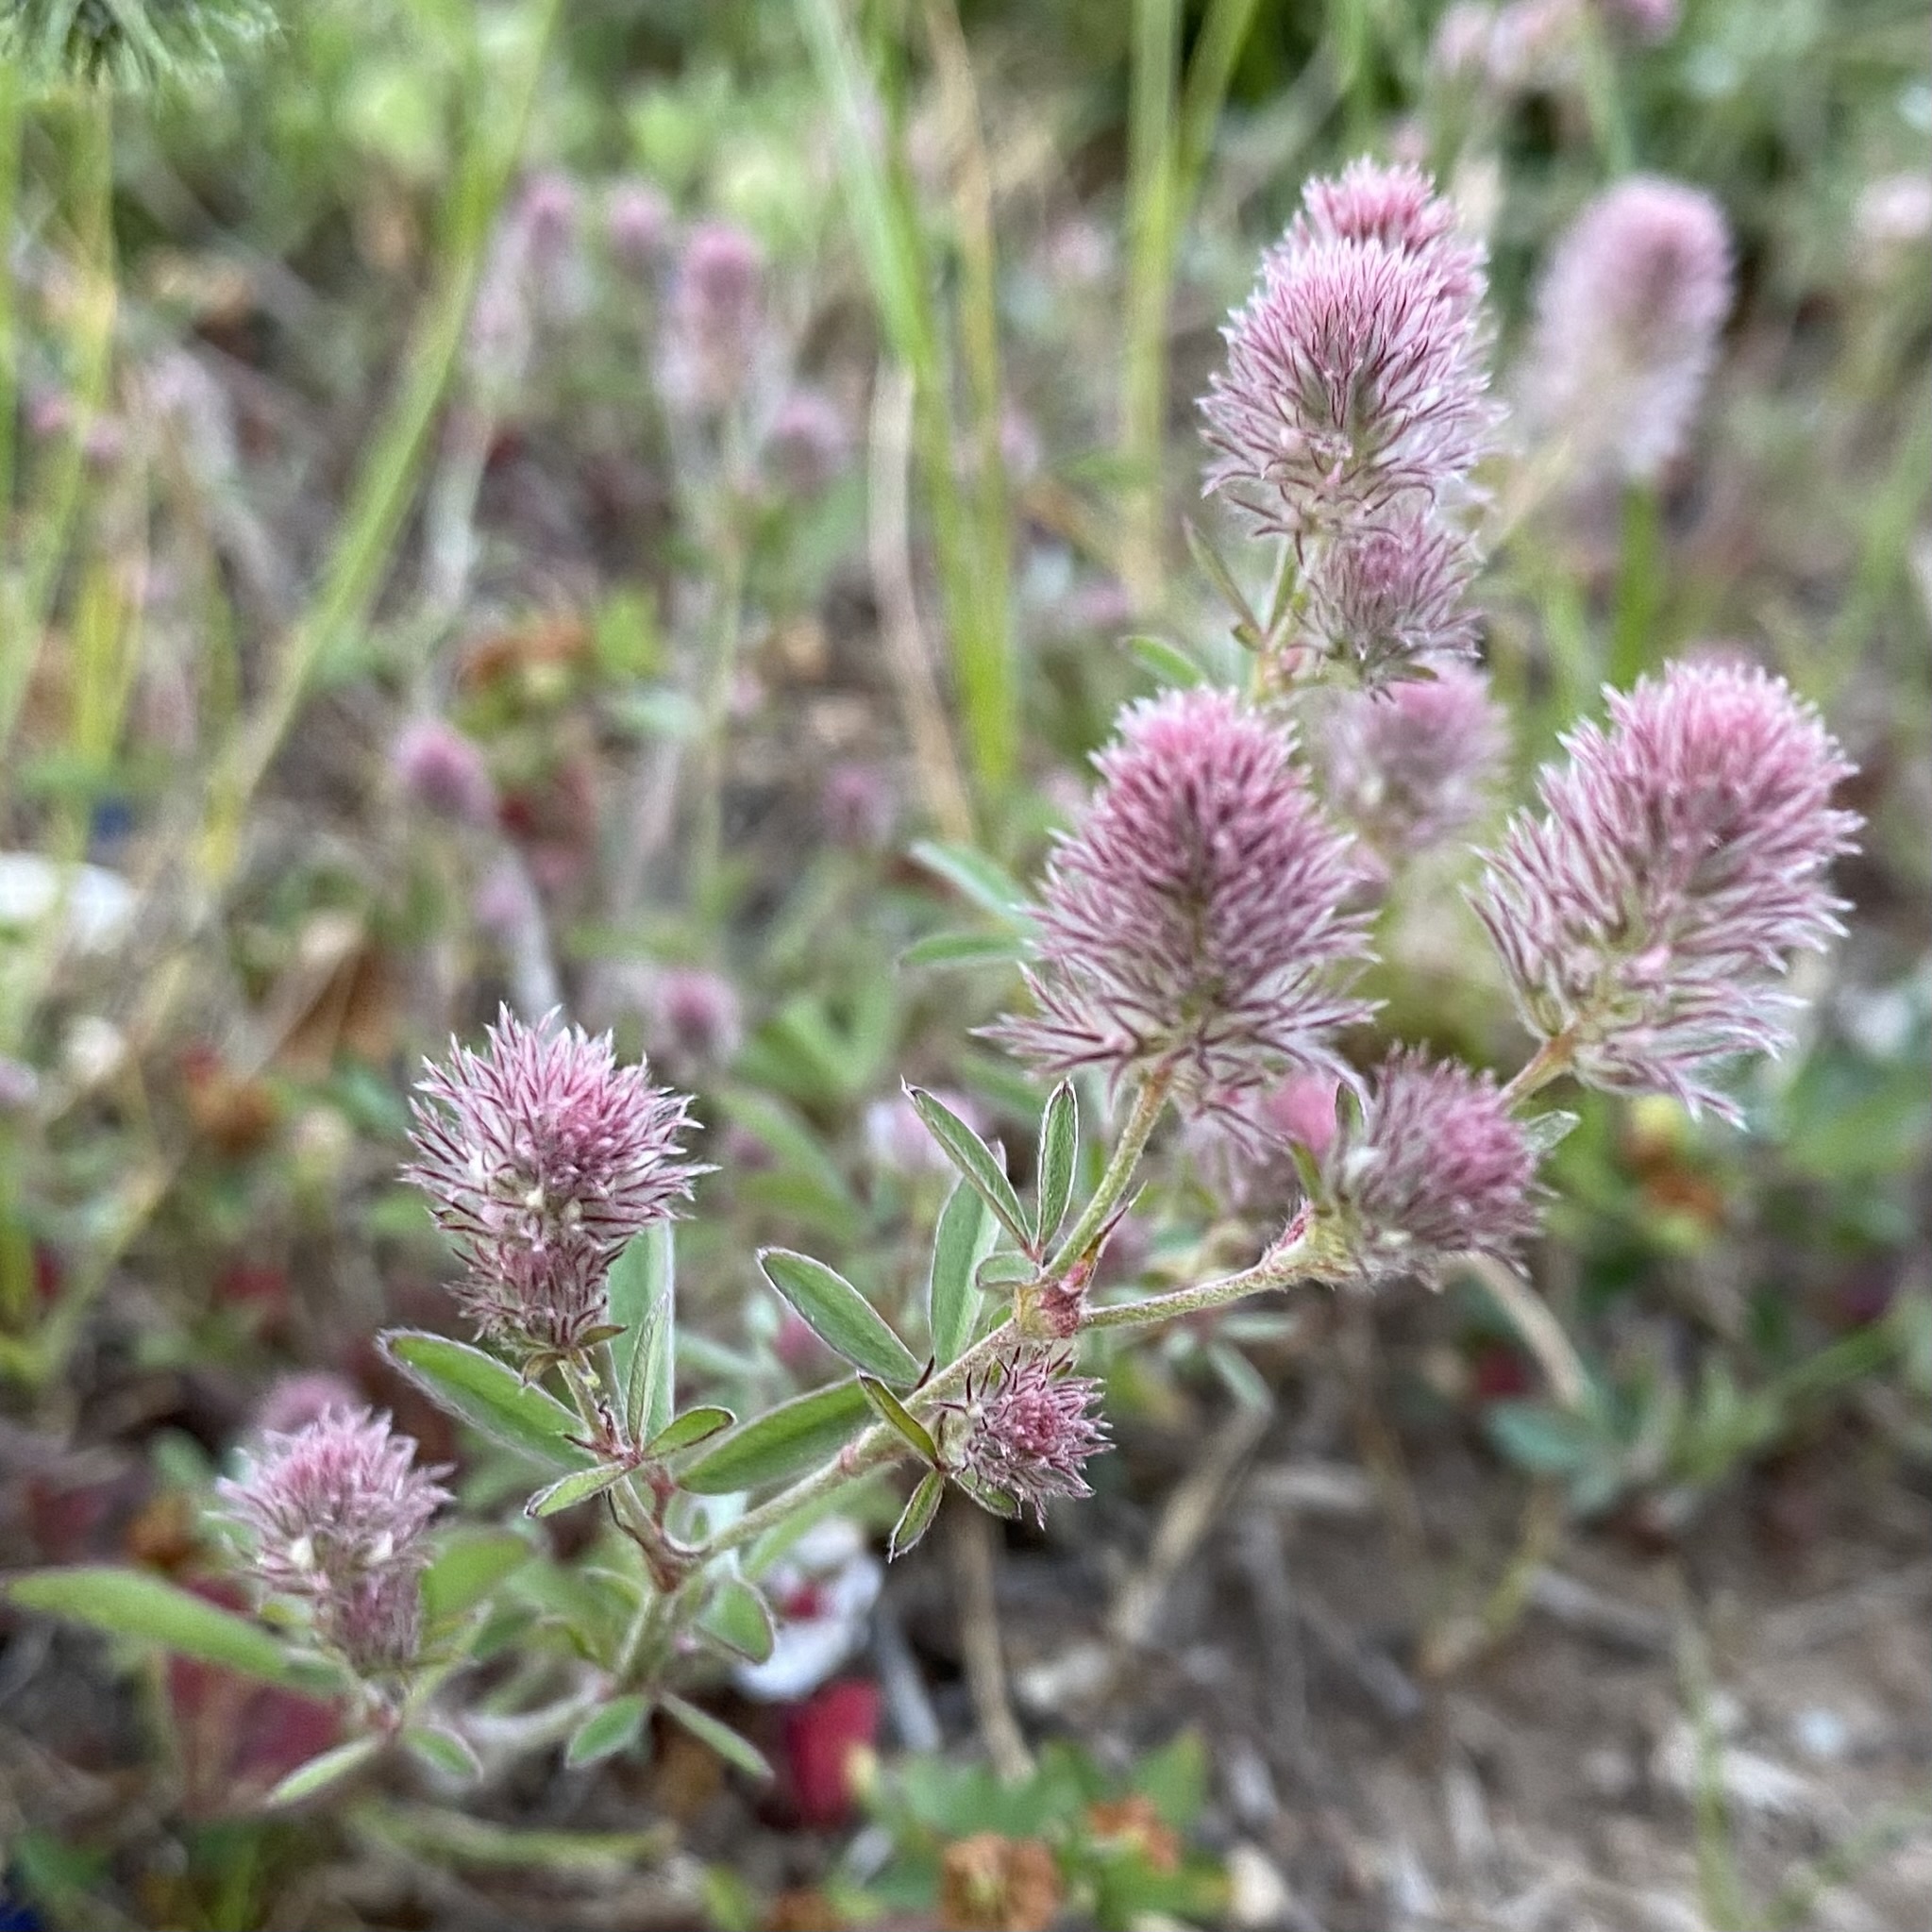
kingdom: Plantae
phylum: Tracheophyta
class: Magnoliopsida
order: Fabales
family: Fabaceae
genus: Trifolium
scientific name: Trifolium arvense
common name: Hare's-foot clover
